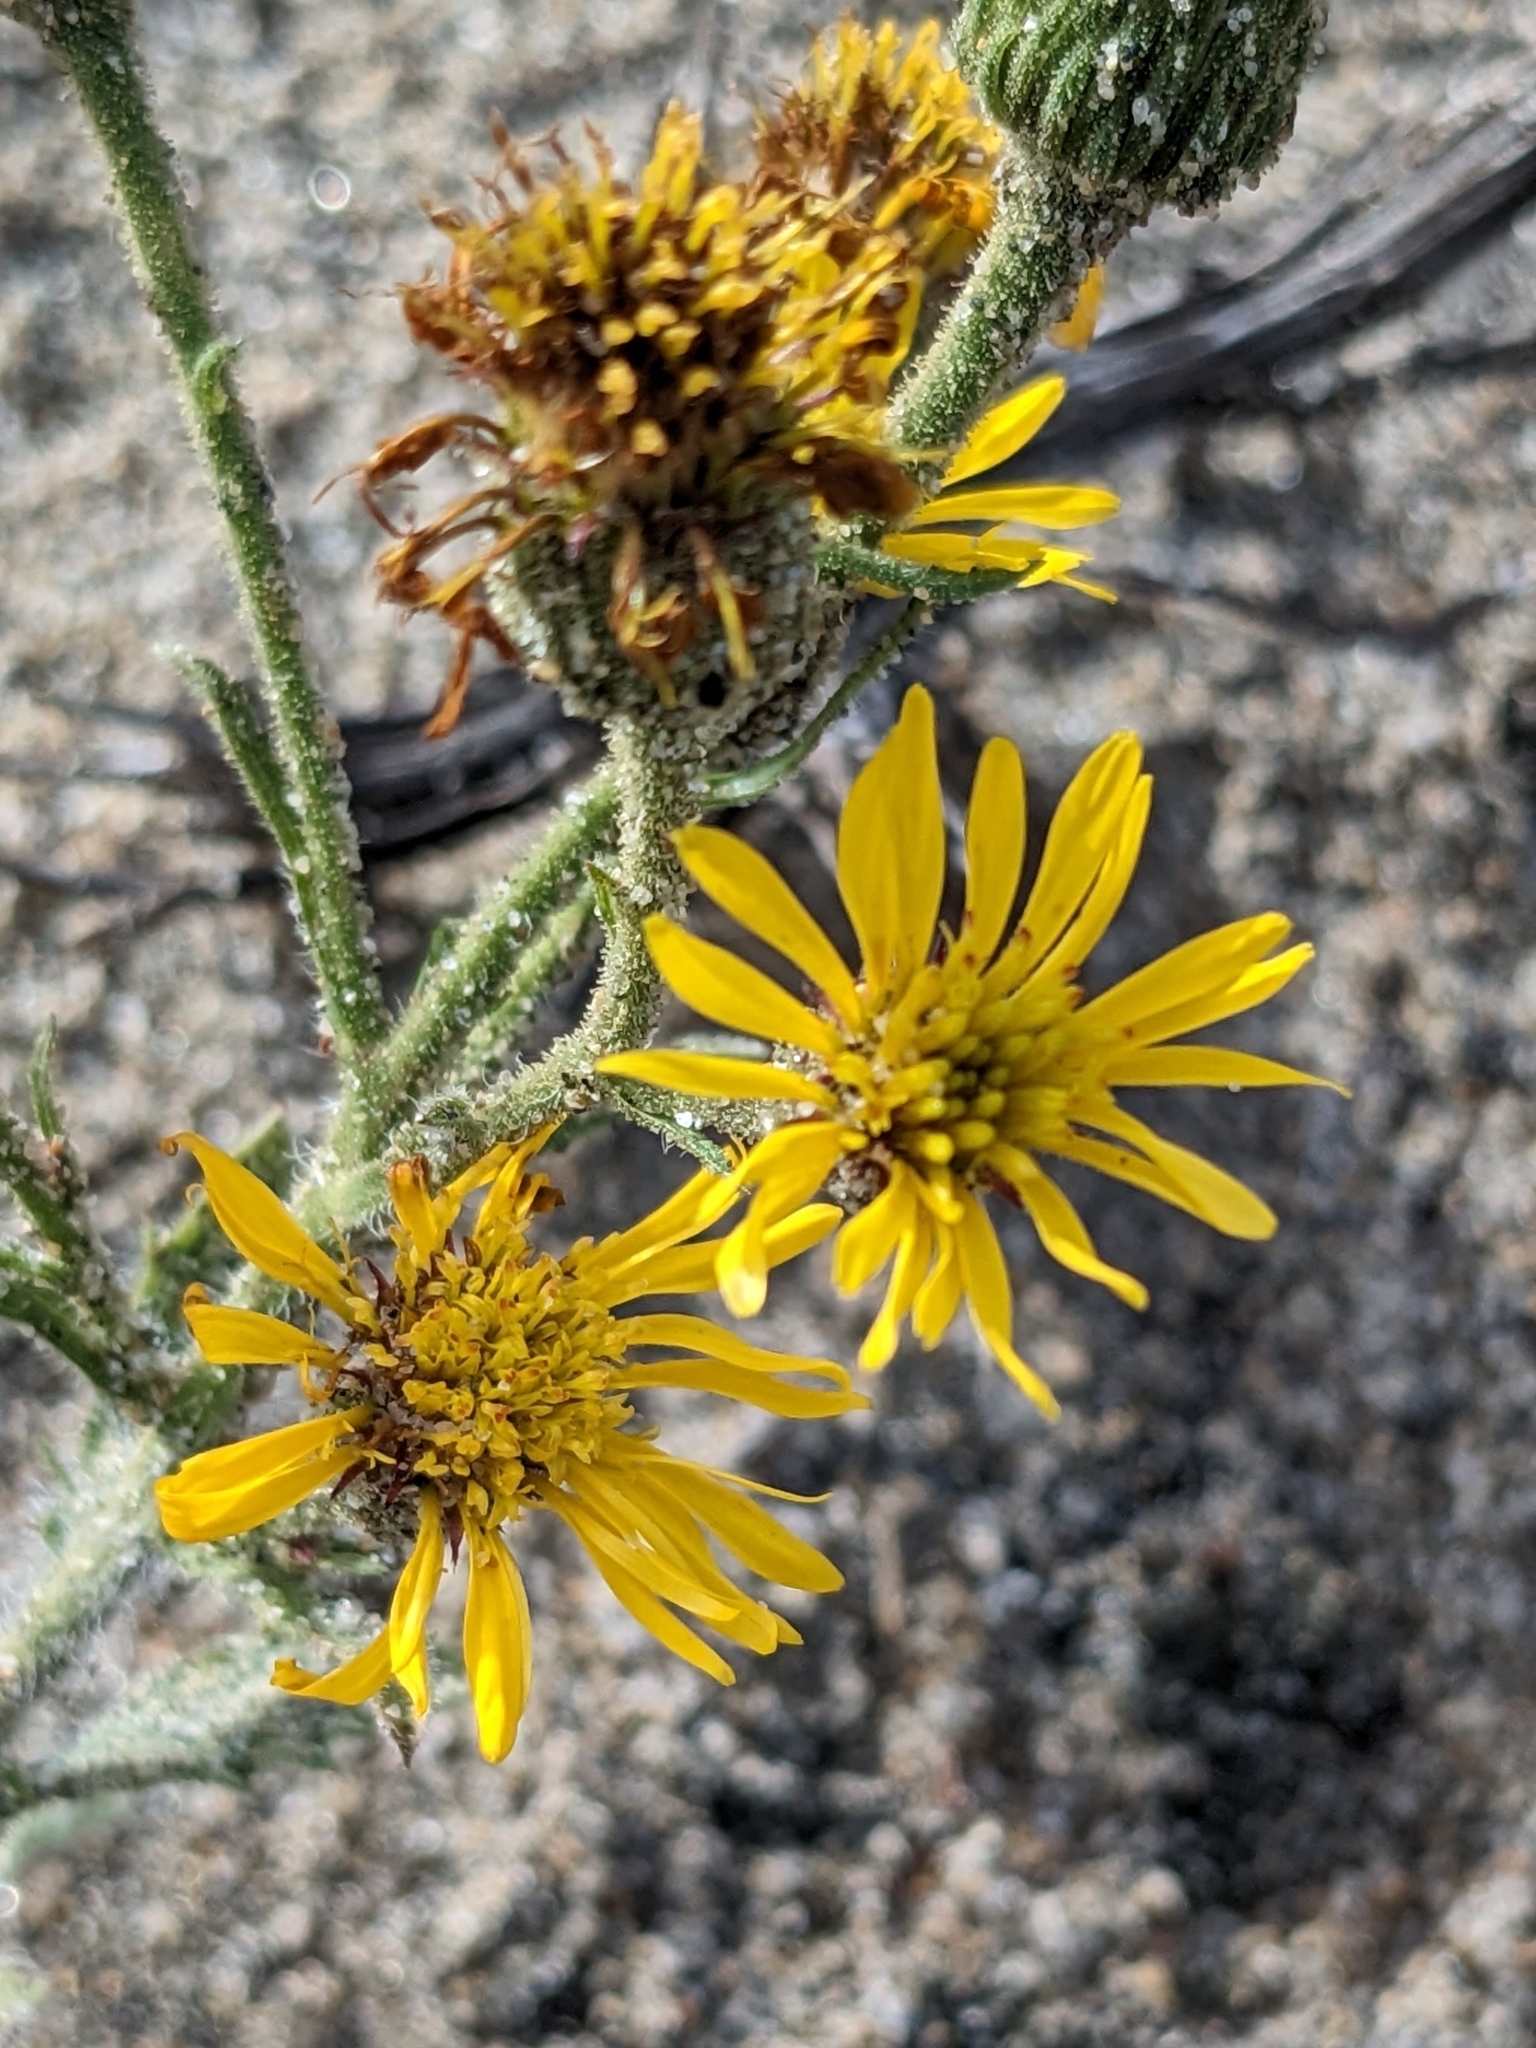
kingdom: Plantae
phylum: Tracheophyta
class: Magnoliopsida
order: Asterales
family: Asteraceae
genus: Heterotheca
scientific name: Heterotheca grandiflora
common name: Telegraphweed
